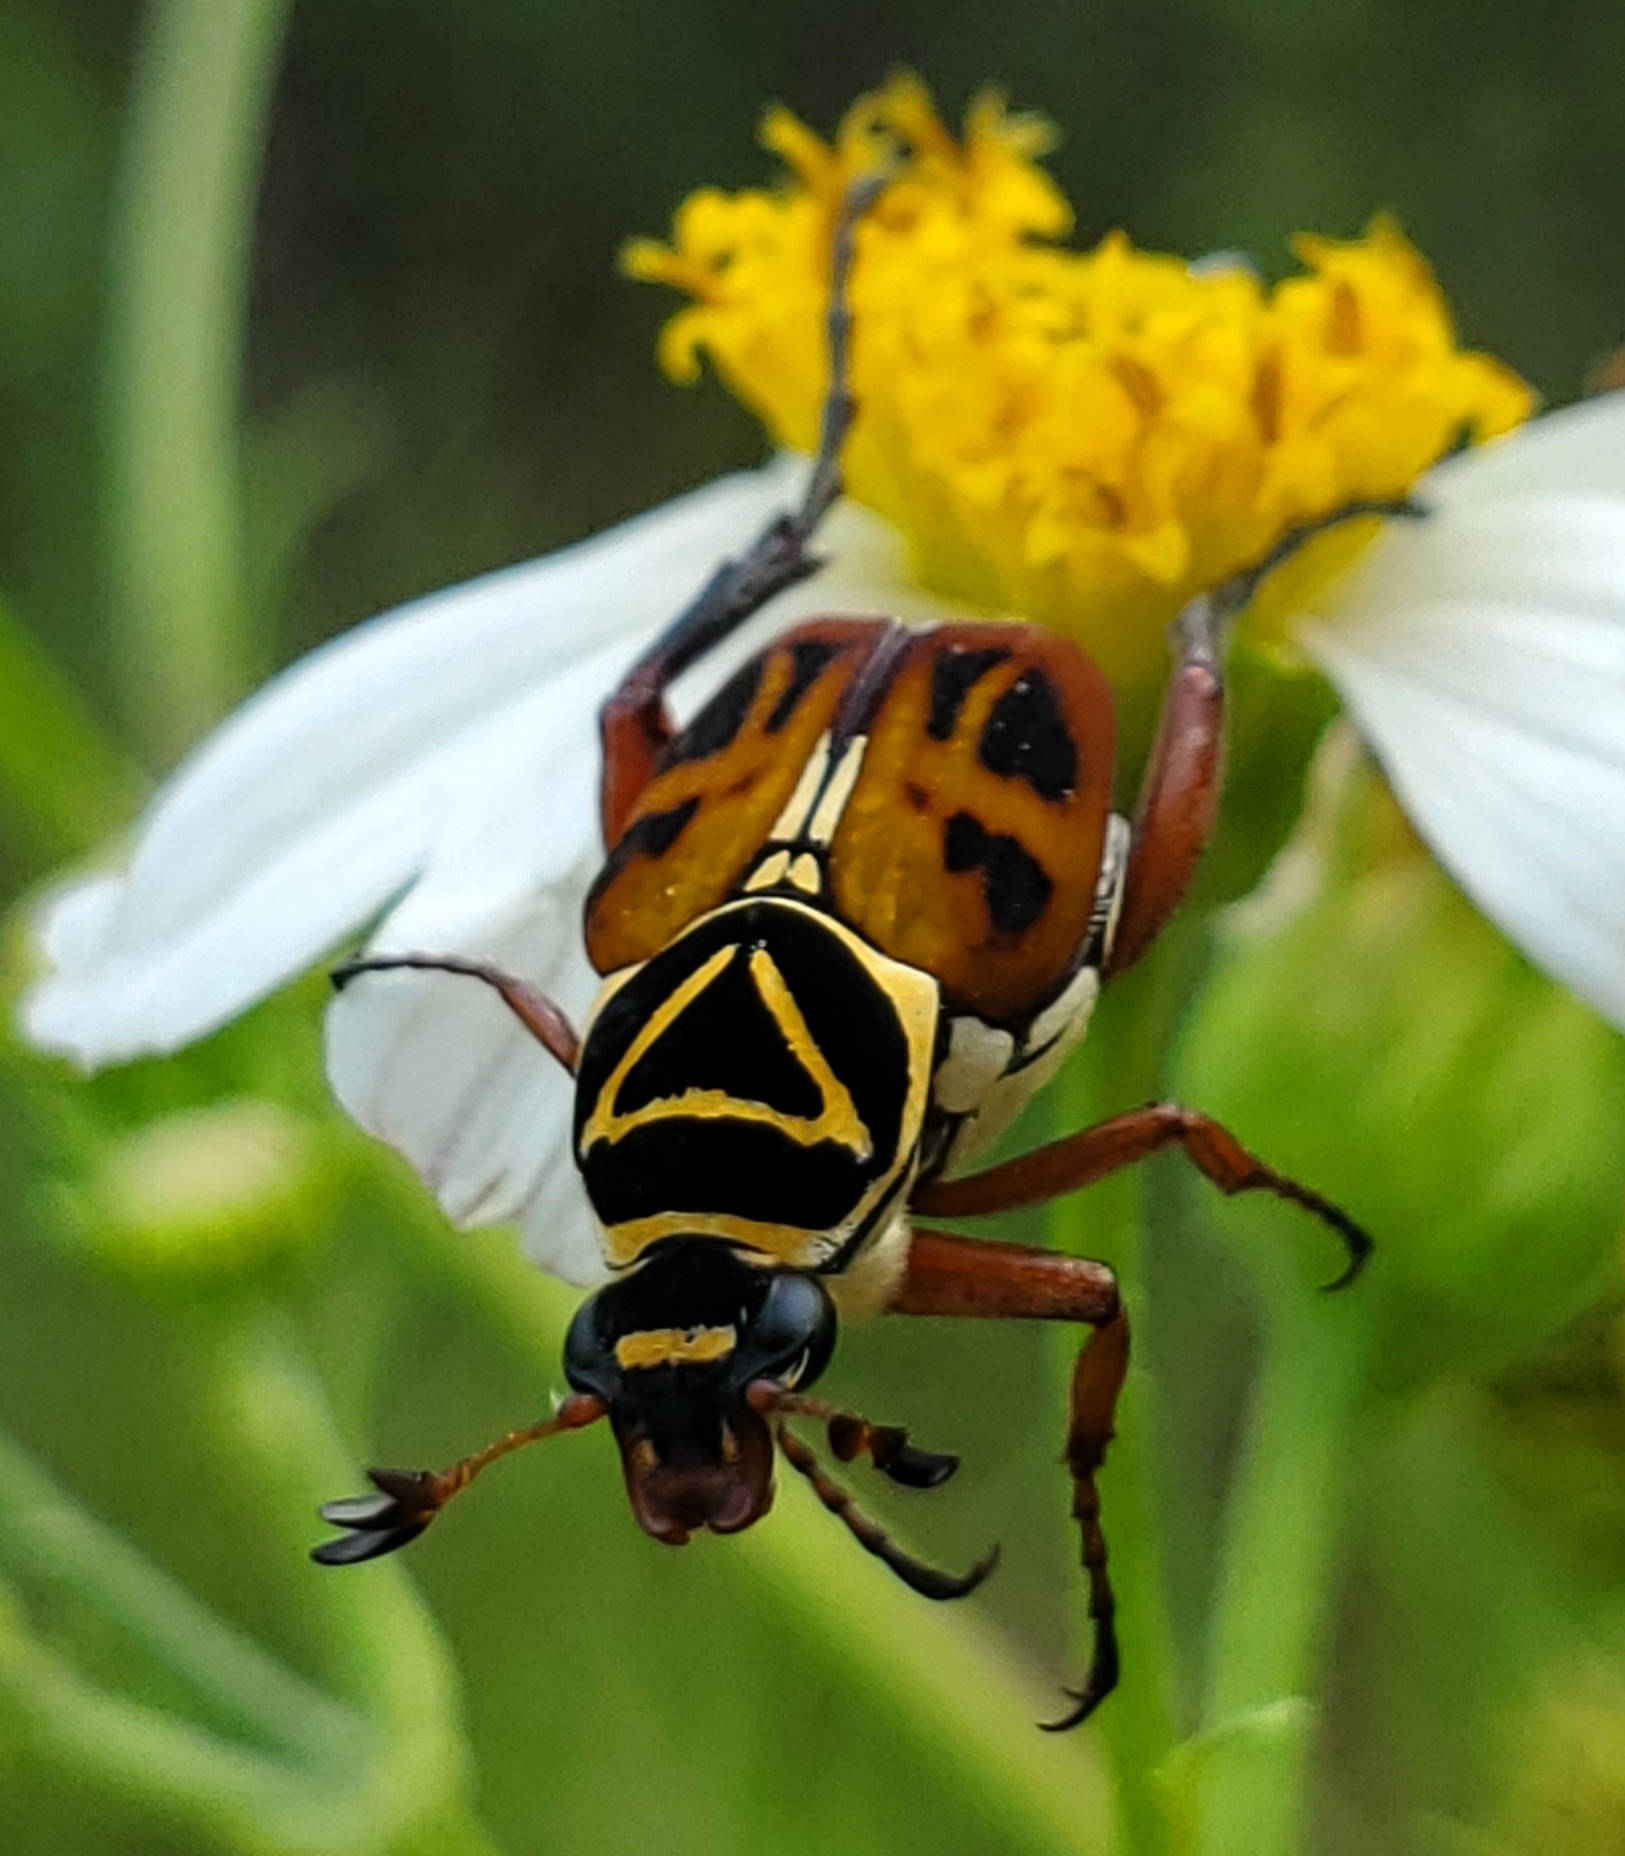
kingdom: Animalia
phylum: Arthropoda
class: Insecta
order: Coleoptera
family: Scarabaeidae
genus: Trigonopeltastes
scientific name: Trigonopeltastes delta
